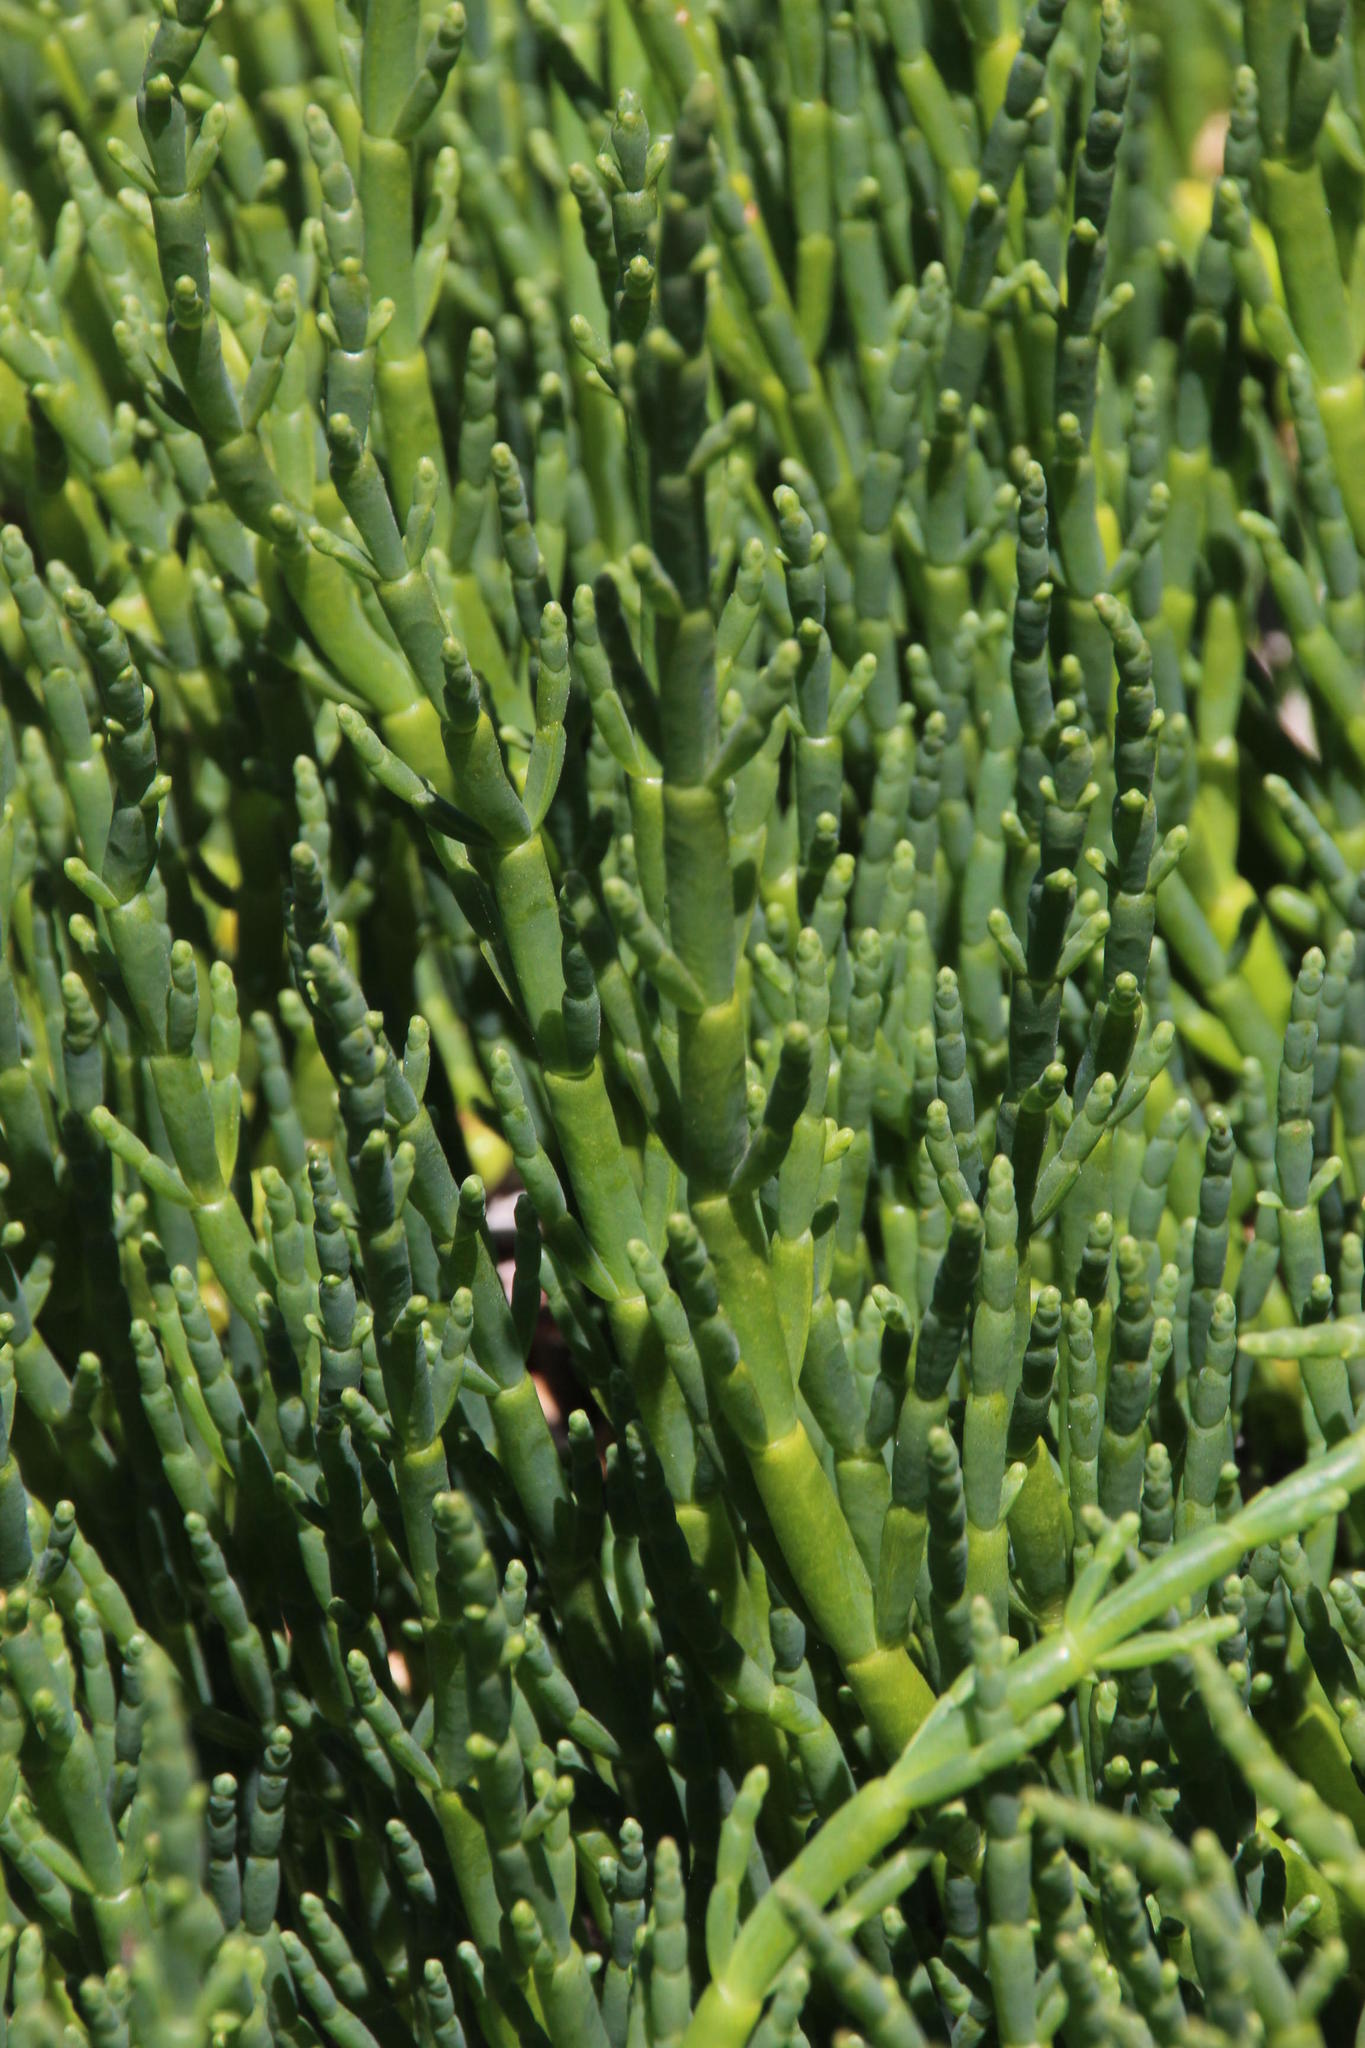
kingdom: Plantae
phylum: Tracheophyta
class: Magnoliopsida
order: Caryophyllales
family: Amaranthaceae
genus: Salicornia
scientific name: Salicornia neei
